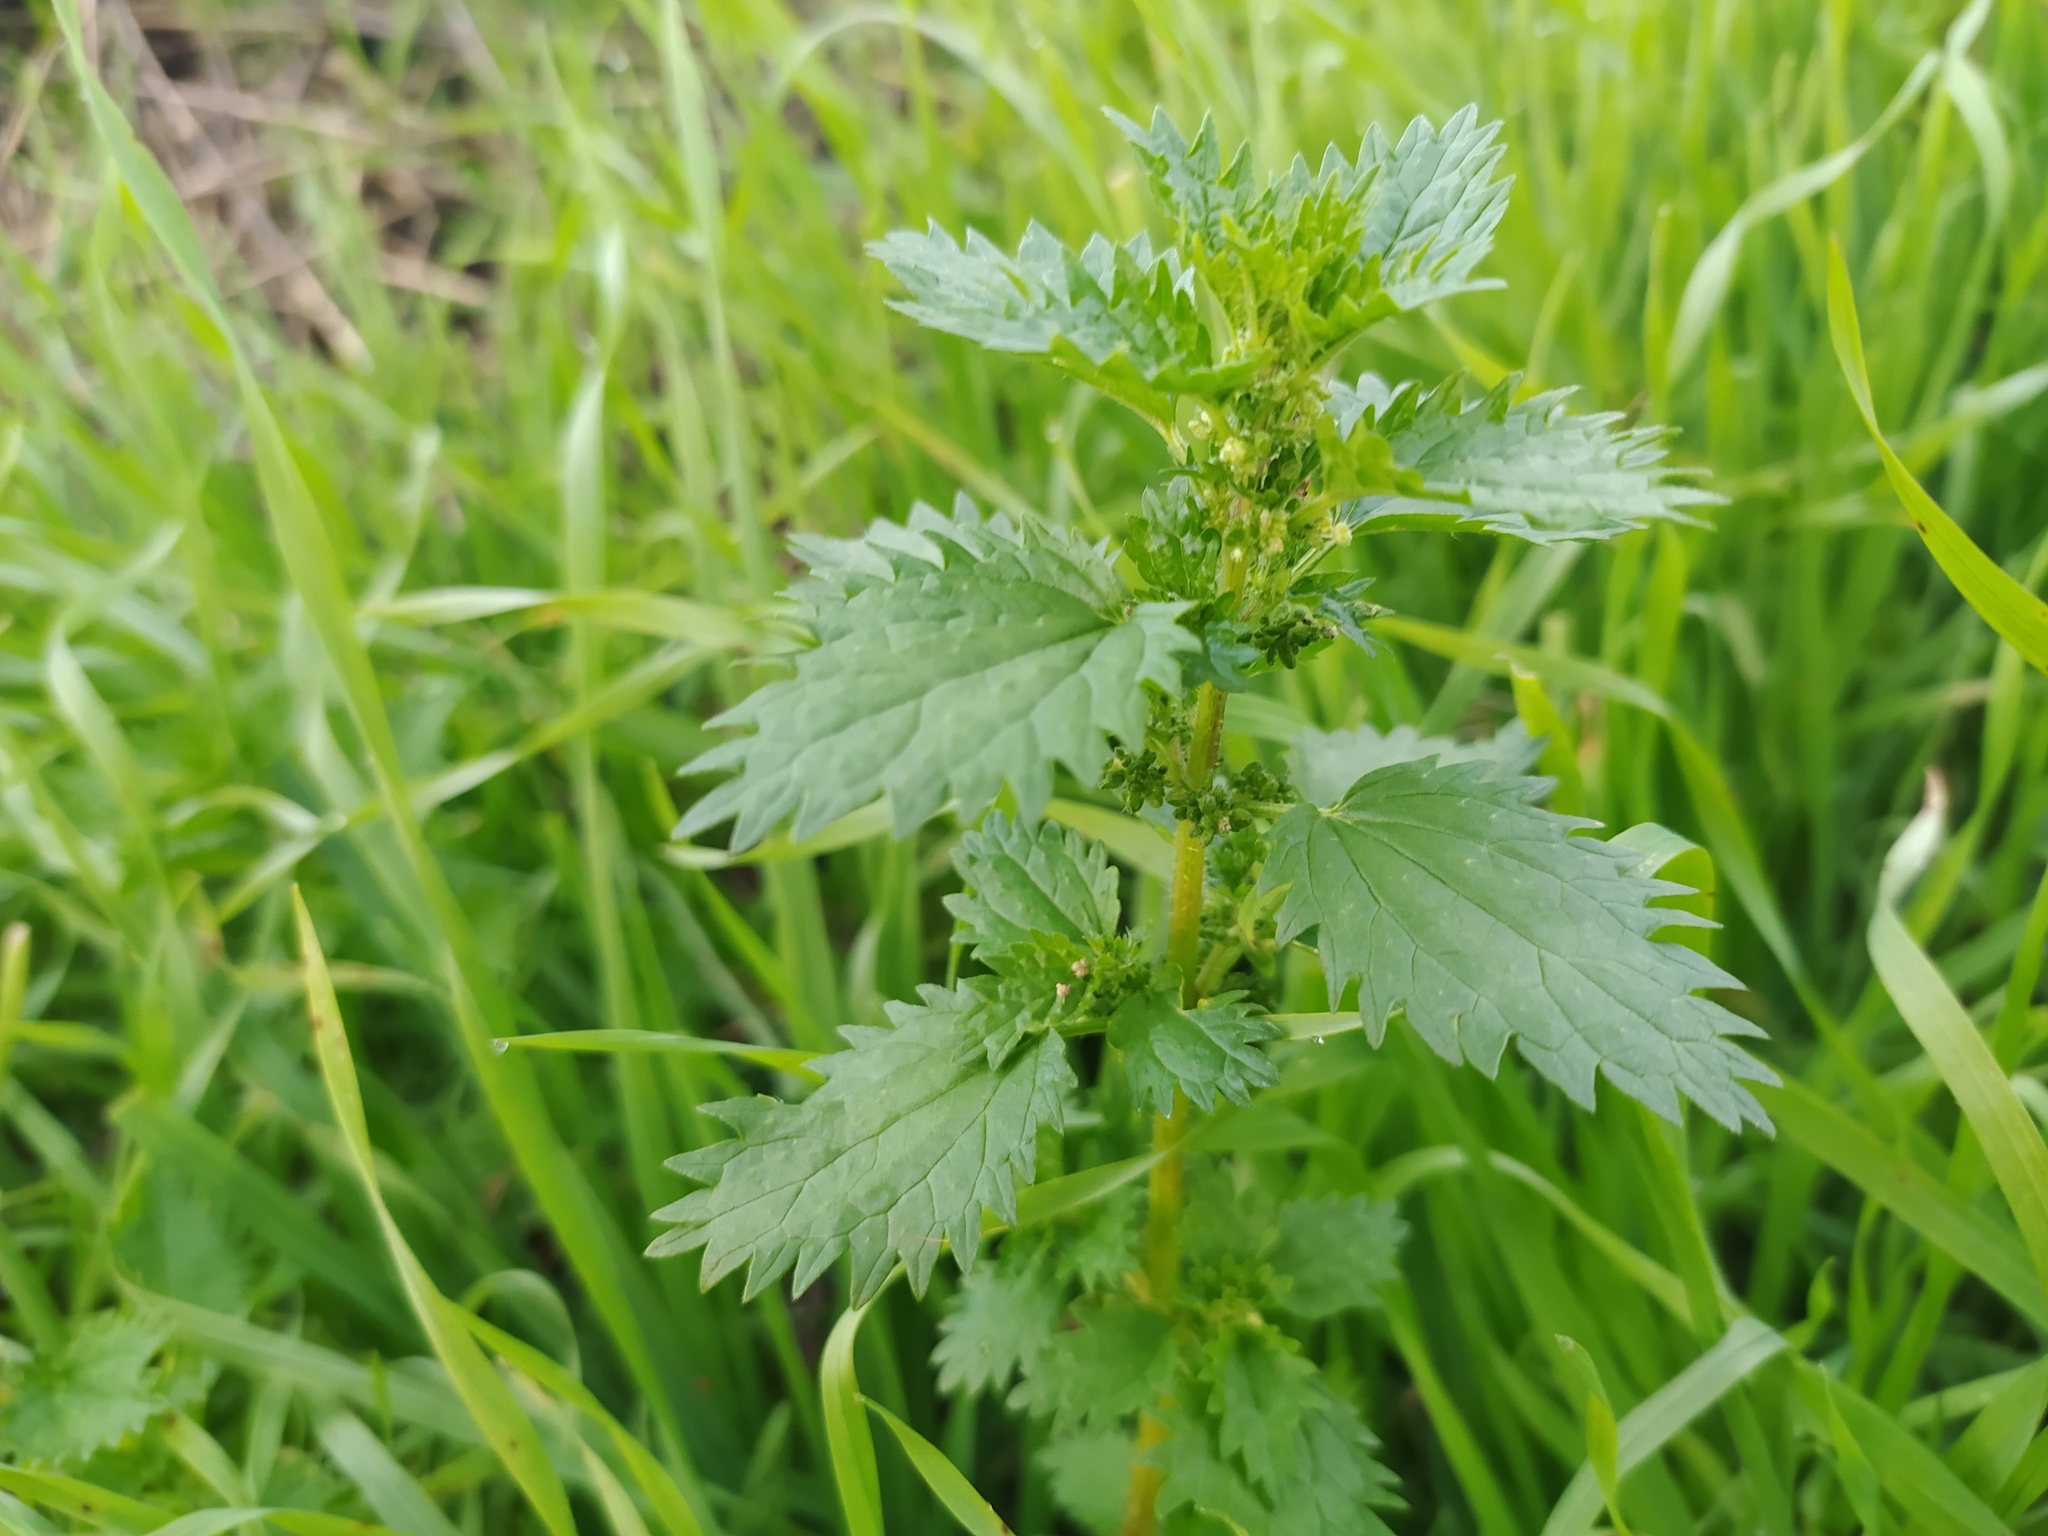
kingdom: Plantae
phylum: Tracheophyta
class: Magnoliopsida
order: Rosales
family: Urticaceae
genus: Urtica
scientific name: Urtica urens
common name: Dwarf nettle
